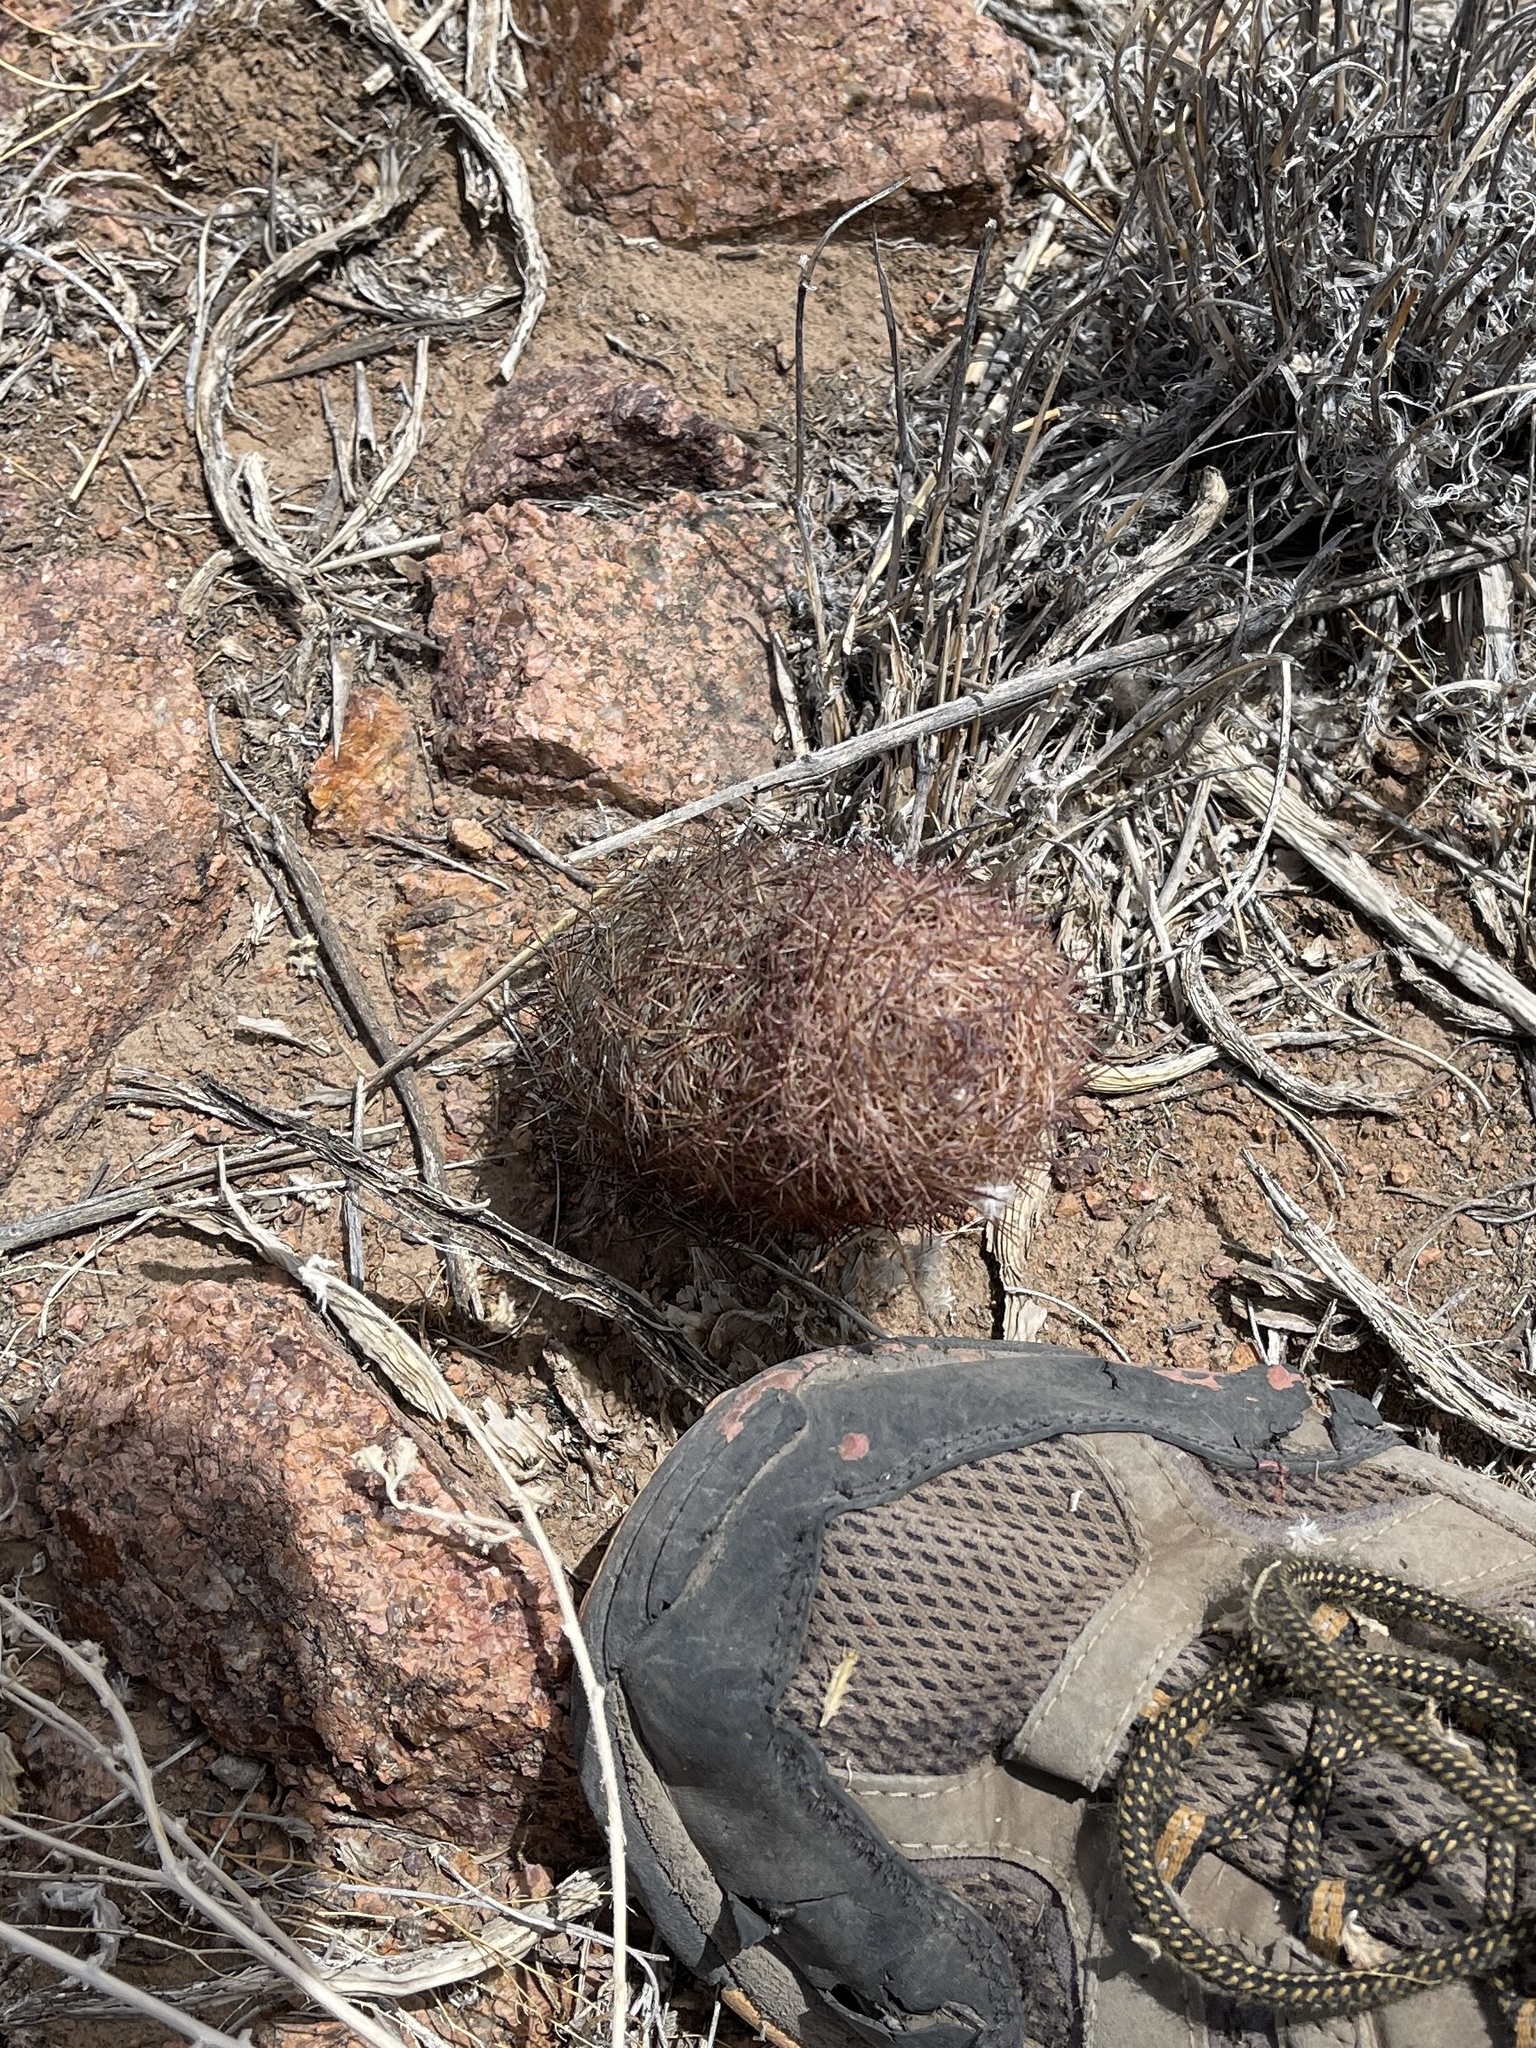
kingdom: Plantae
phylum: Tracheophyta
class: Magnoliopsida
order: Caryophyllales
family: Cactaceae
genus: Sclerocactus
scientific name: Sclerocactus intertextus
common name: White fish-hook cactus
